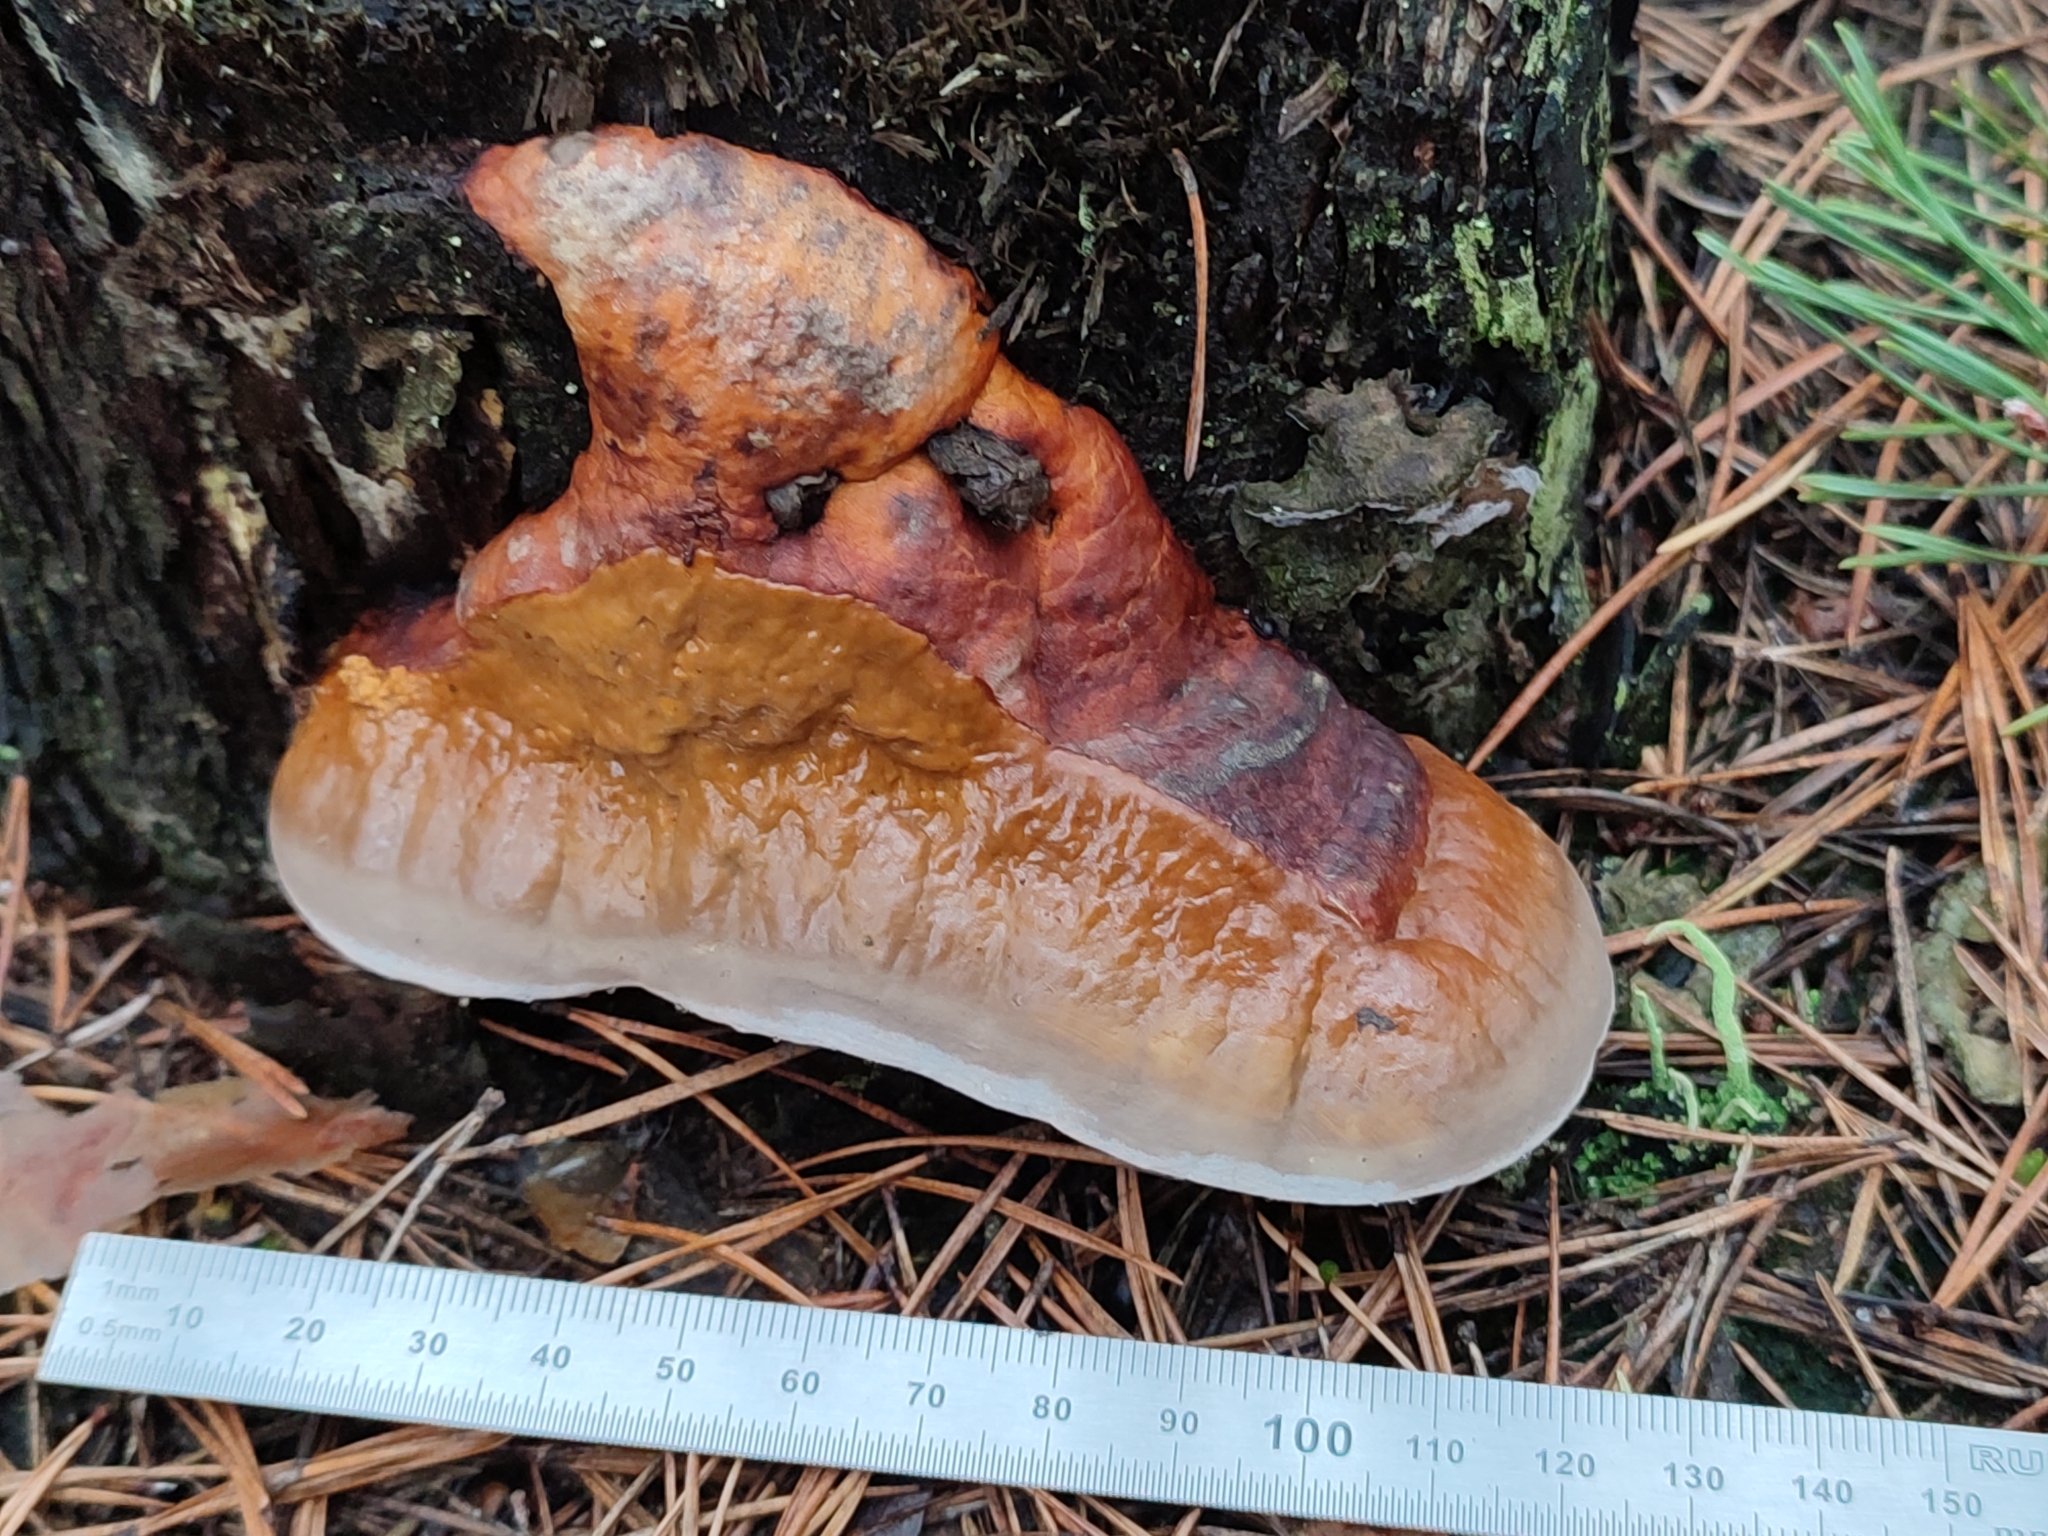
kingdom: Fungi
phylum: Basidiomycota
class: Agaricomycetes
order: Polyporales
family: Fomitopsidaceae
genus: Fomitopsis
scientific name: Fomitopsis pinicola
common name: Red-belted bracket
